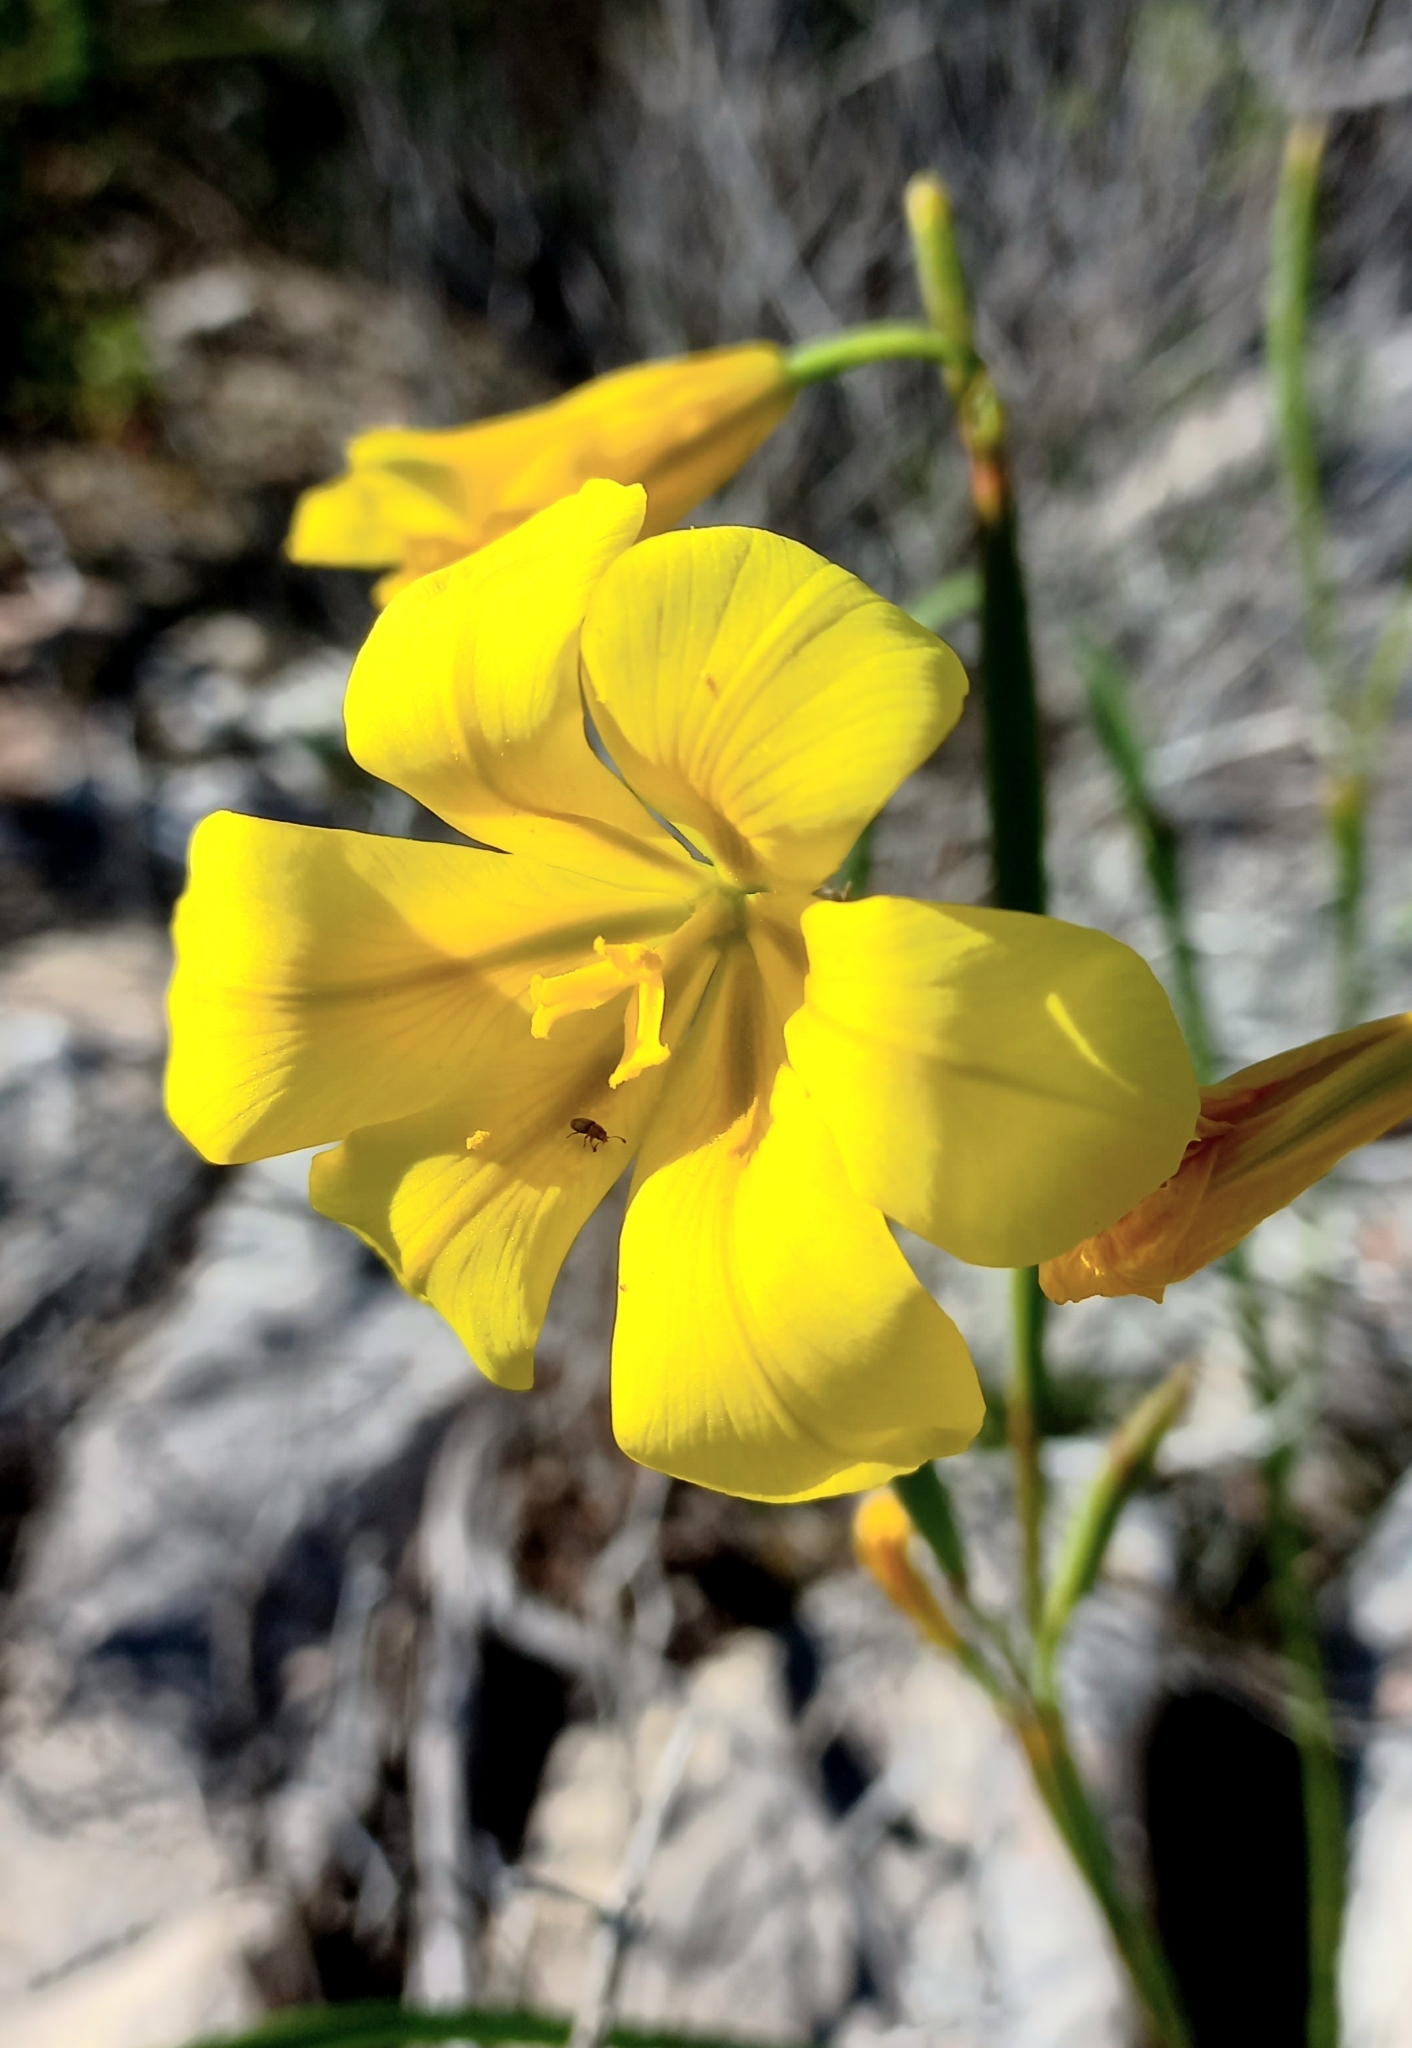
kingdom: Plantae
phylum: Tracheophyta
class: Liliopsida
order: Asparagales
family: Iridaceae
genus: Moraea
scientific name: Moraea ochroleuca
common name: Red tulp
